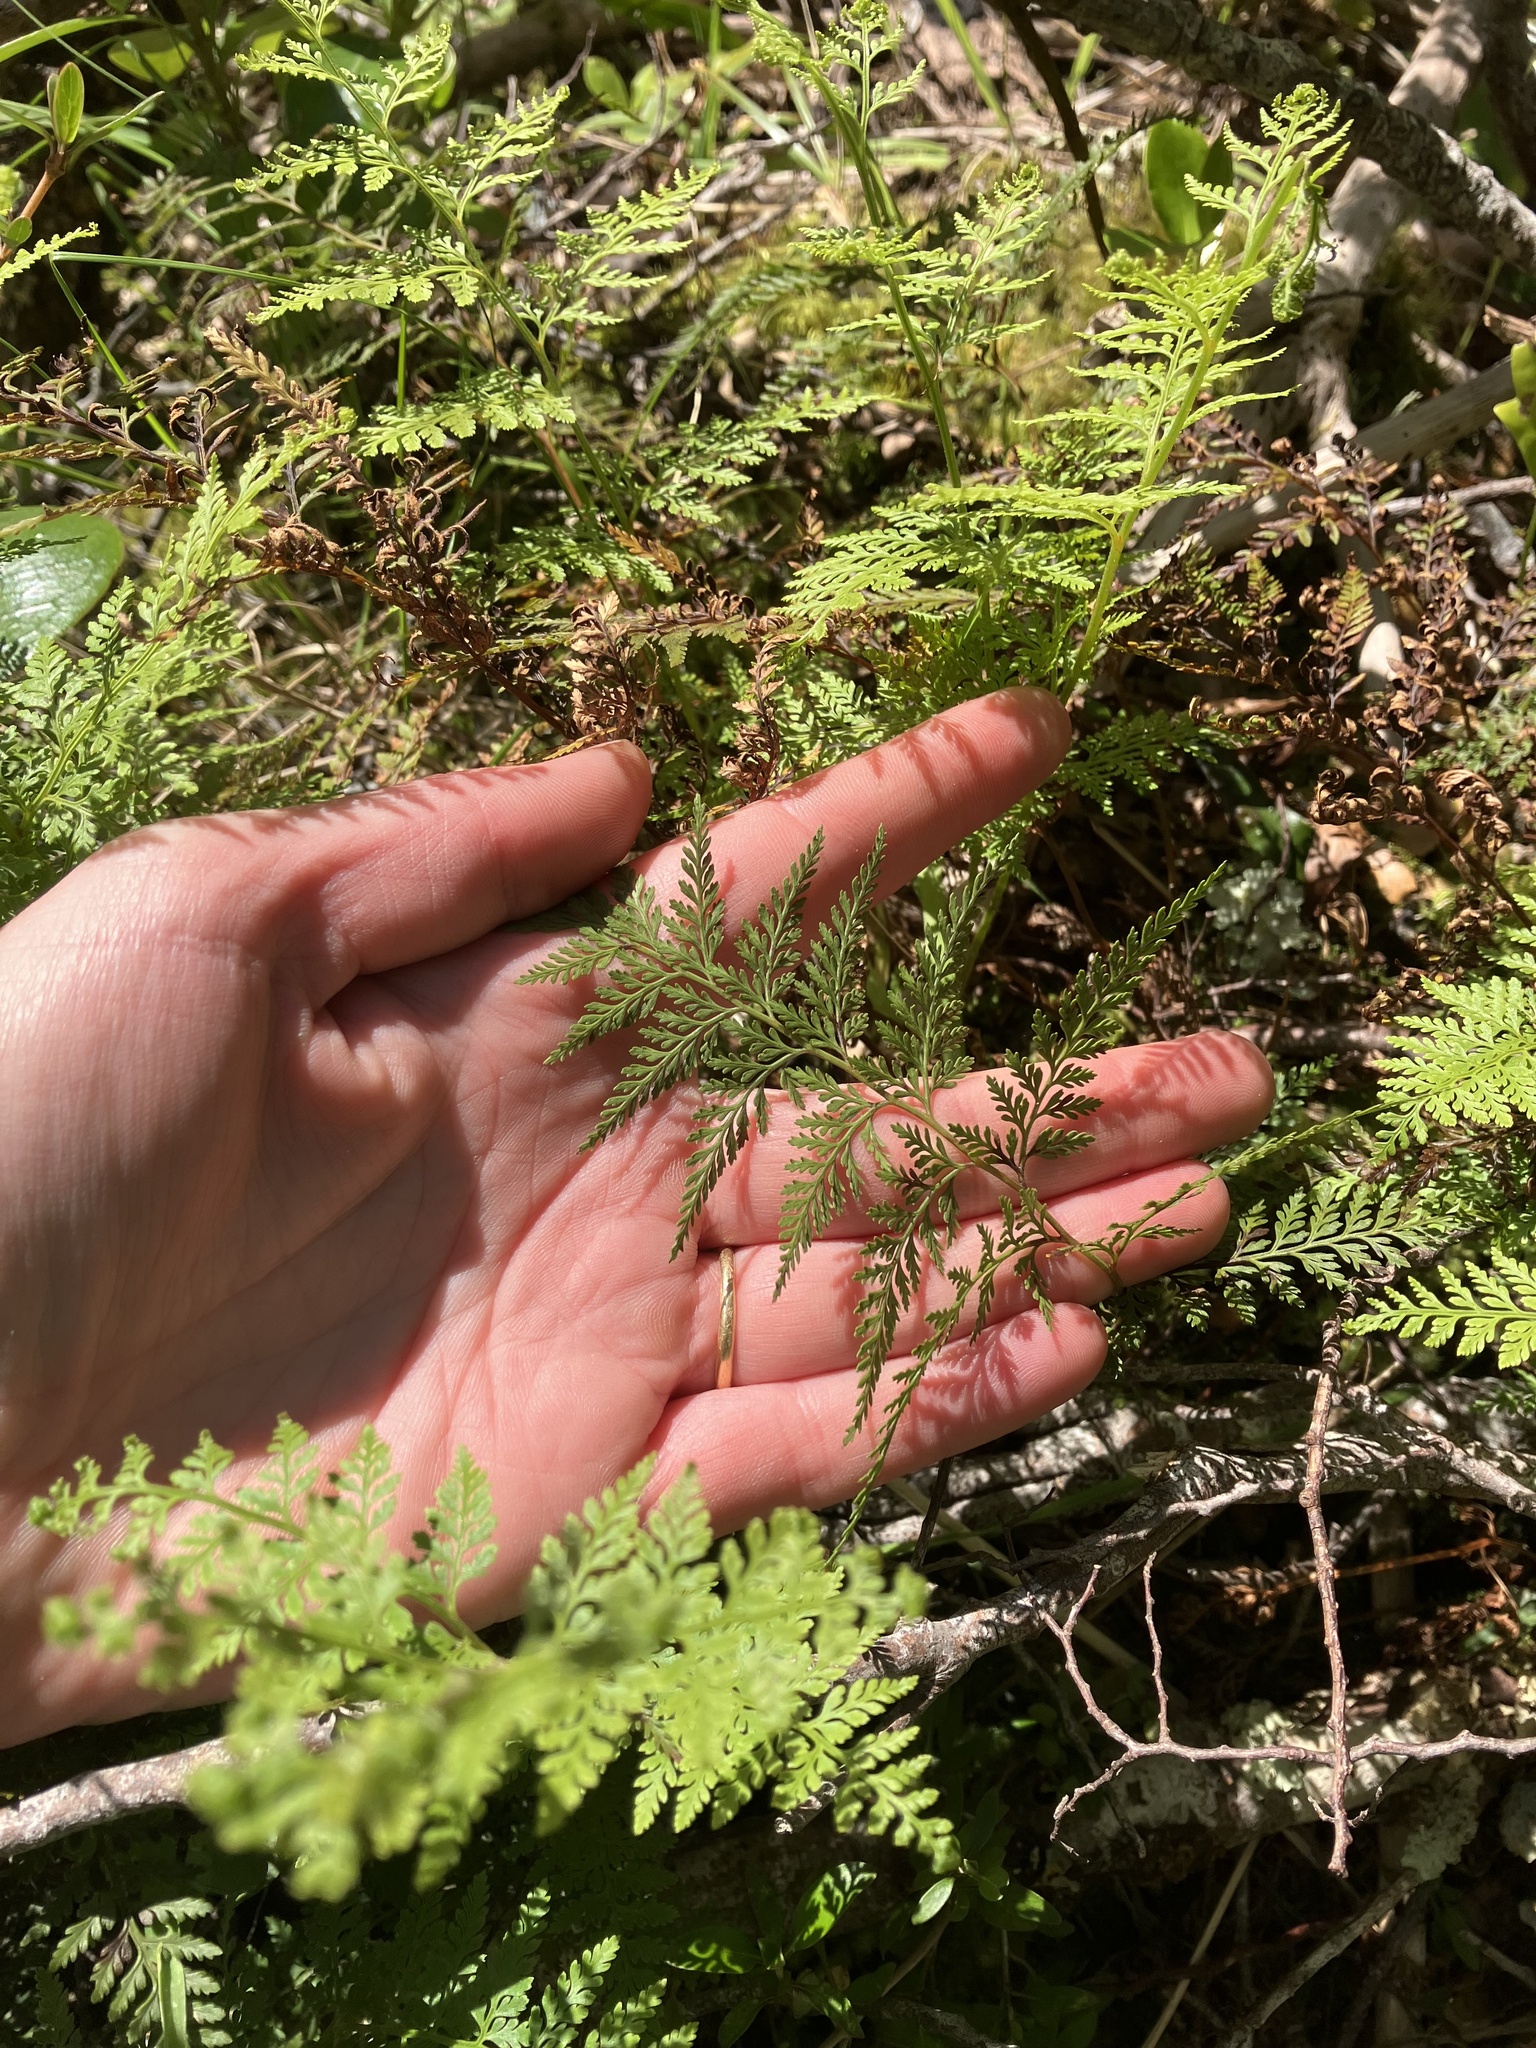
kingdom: Plantae
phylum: Tracheophyta
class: Polypodiopsida
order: Polypodiales
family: Dennstaedtiaceae
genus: Paesia
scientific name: Paesia scaberula
